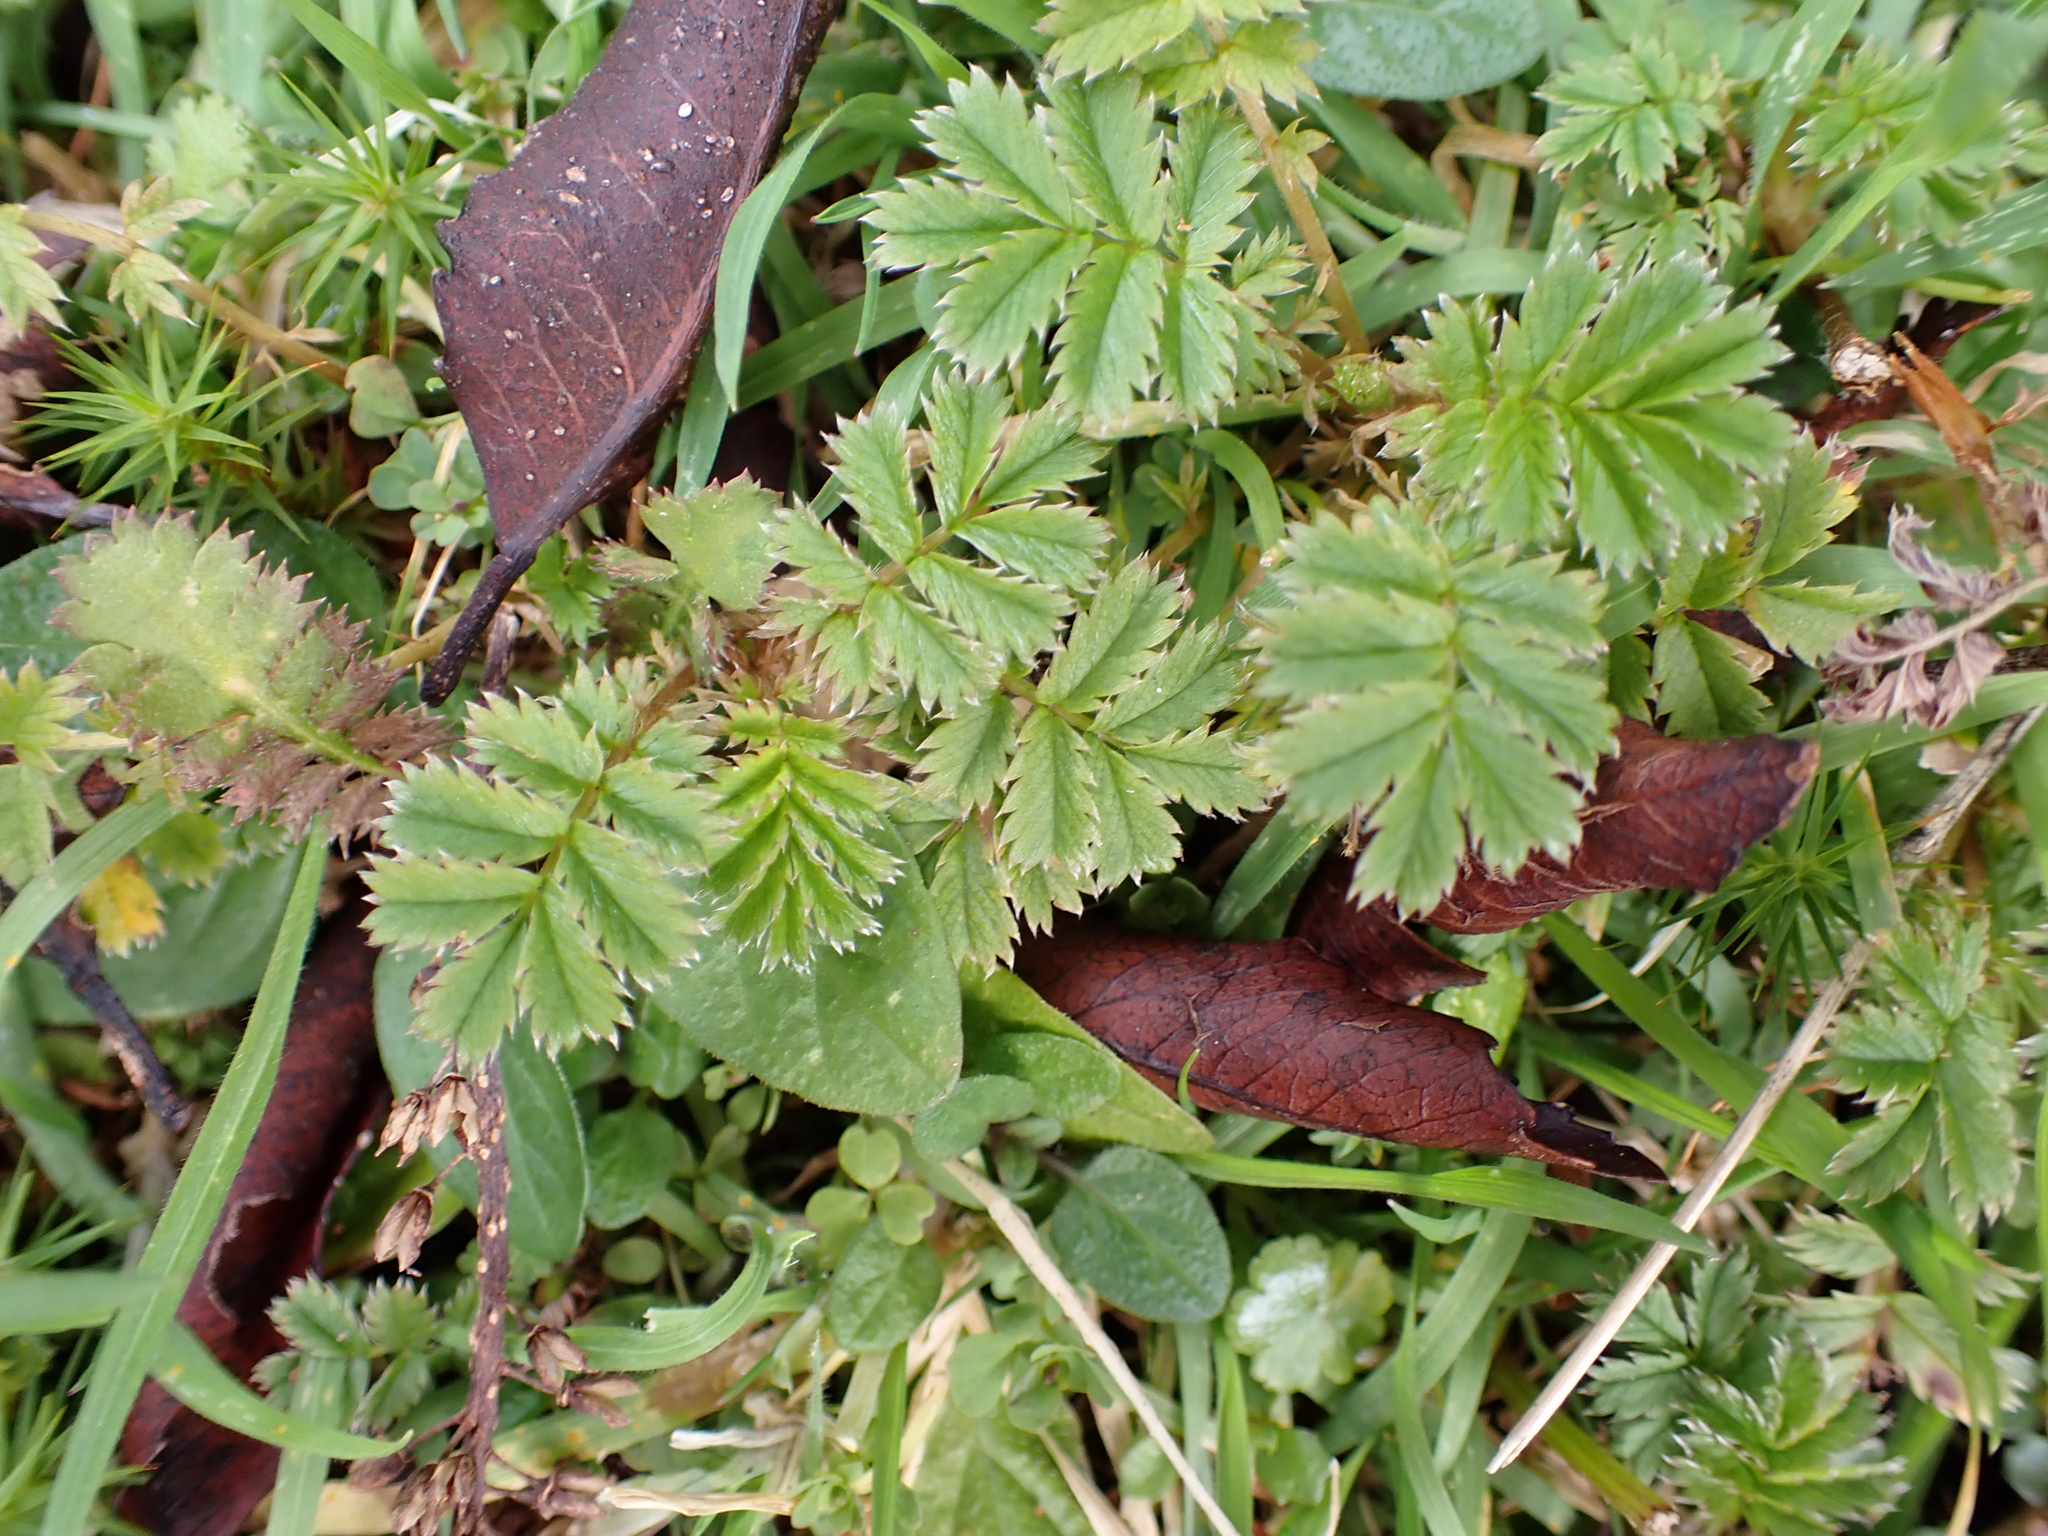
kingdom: Plantae
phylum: Tracheophyta
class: Magnoliopsida
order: Rosales
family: Rosaceae
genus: Acaena
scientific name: Acaena anserinifolia
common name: Bronze pirri-pirri-bur
